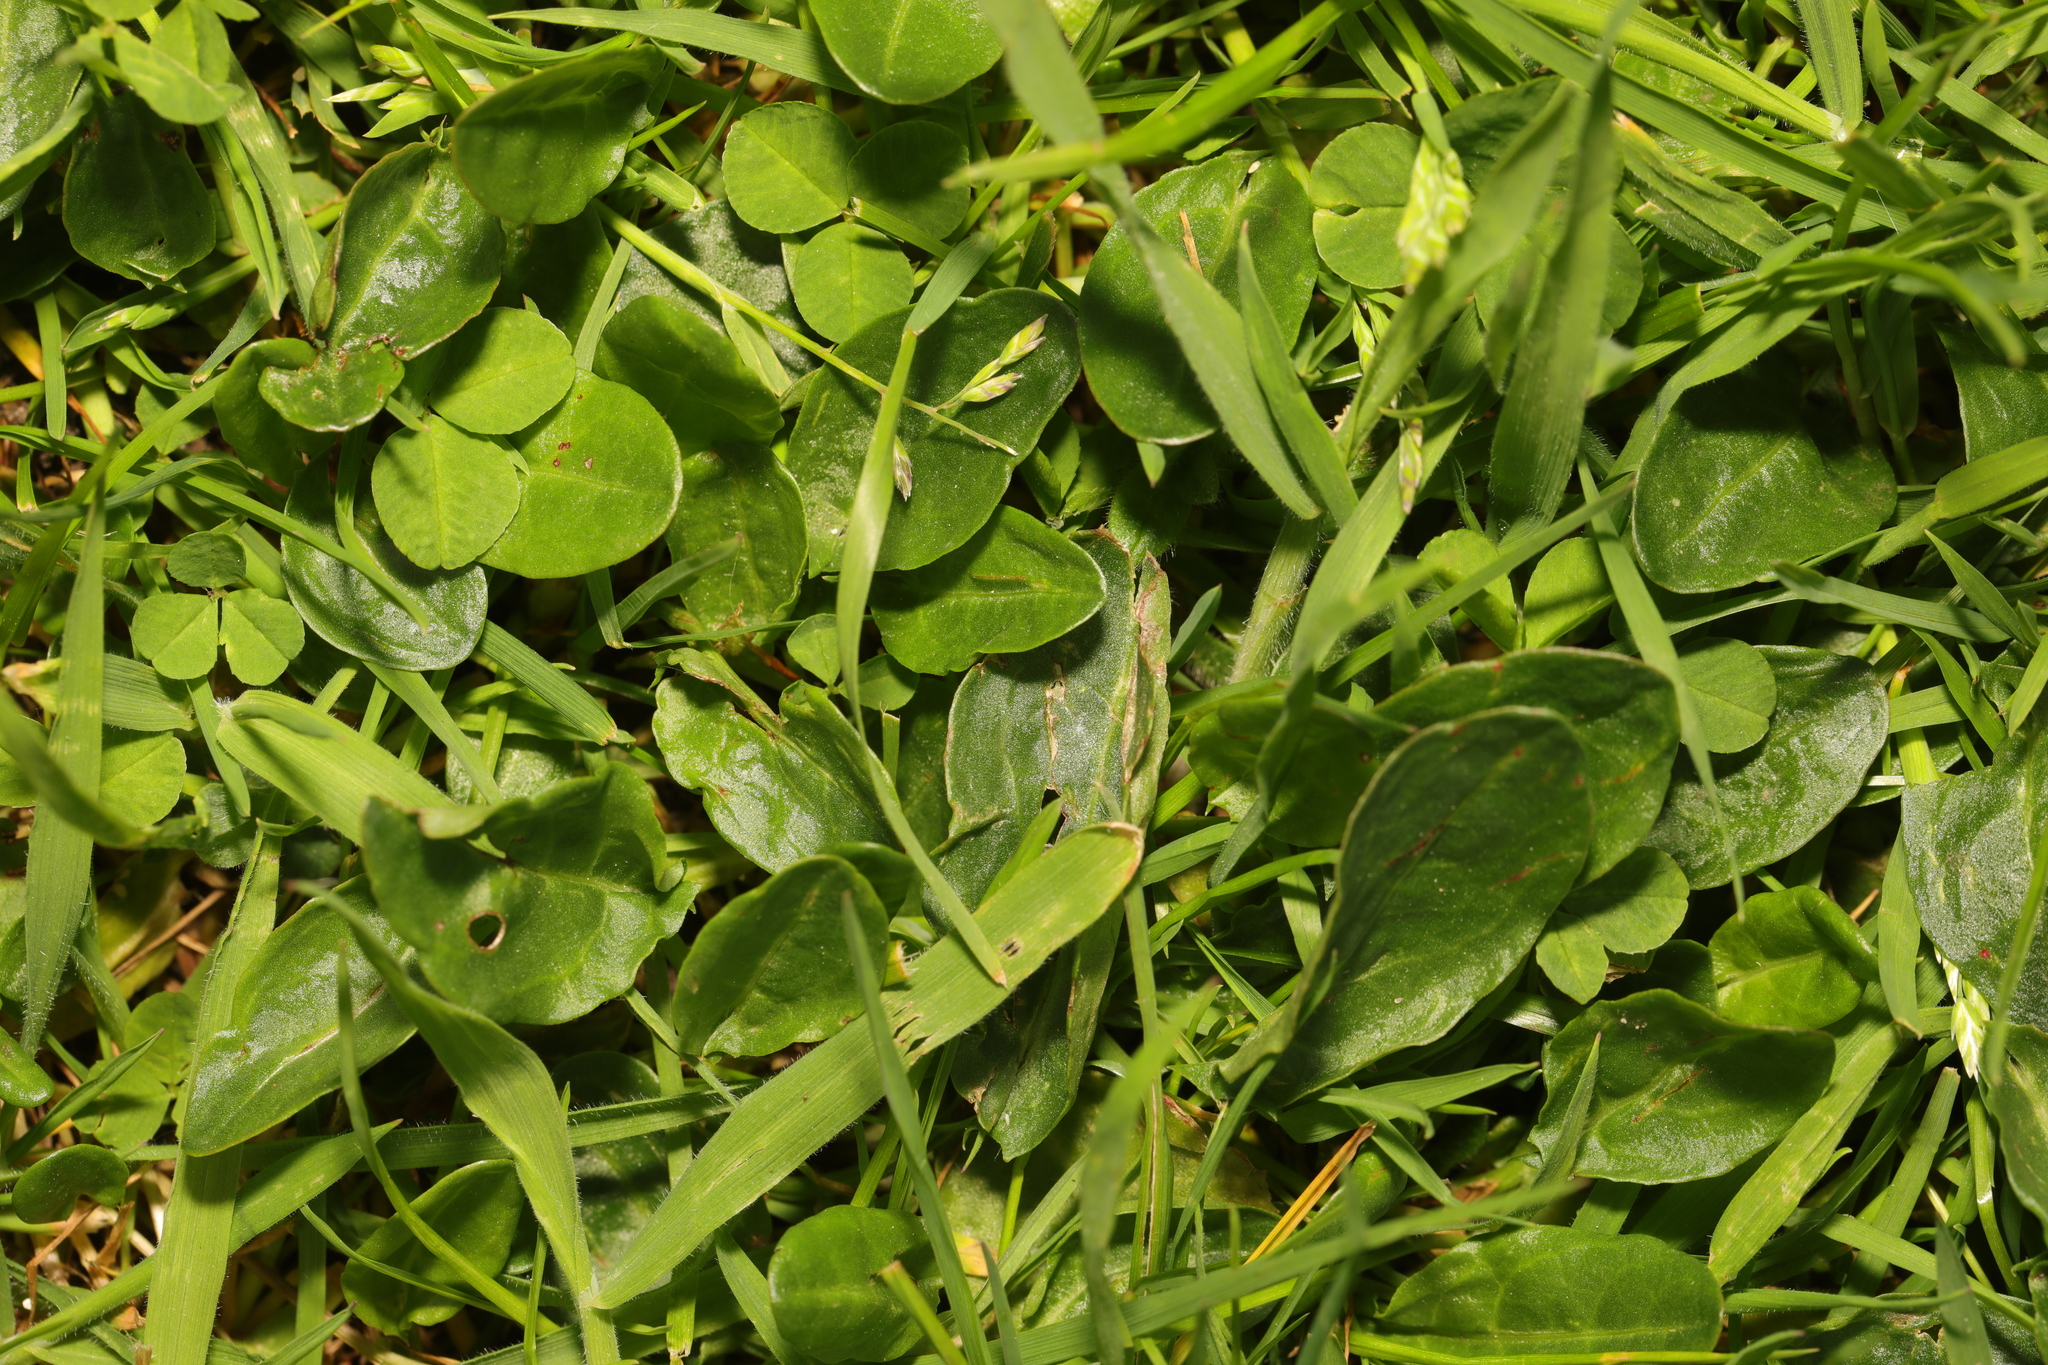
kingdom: Plantae
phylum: Tracheophyta
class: Magnoliopsida
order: Asterales
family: Asteraceae
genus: Bellis
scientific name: Bellis perennis
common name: Lawndaisy
